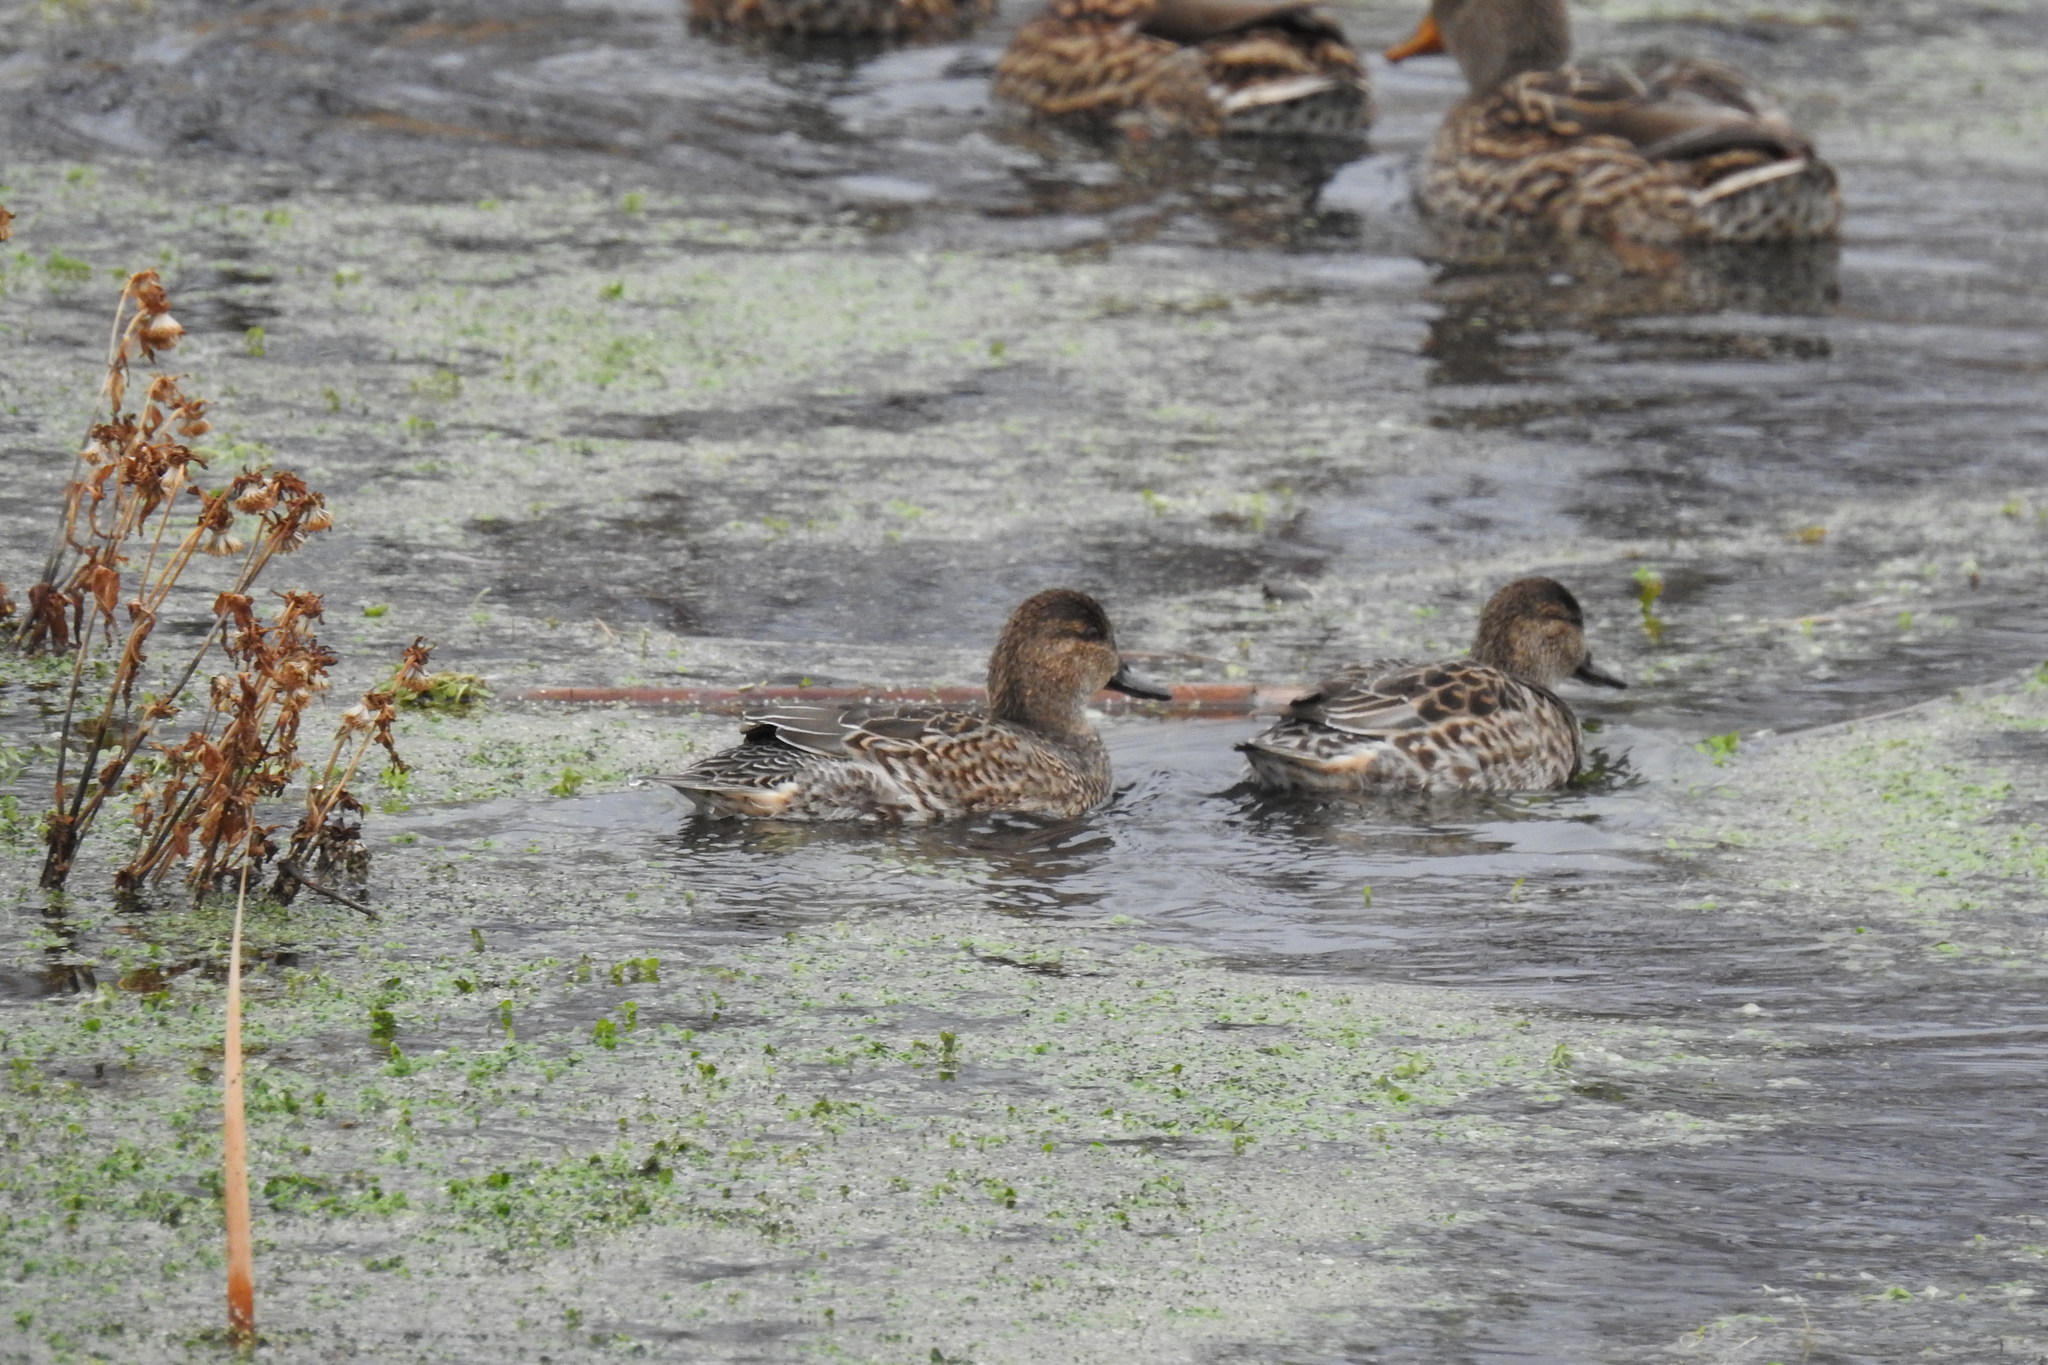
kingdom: Animalia
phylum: Chordata
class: Aves
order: Anseriformes
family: Anatidae
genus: Anas
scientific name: Anas crecca
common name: Eurasian teal
